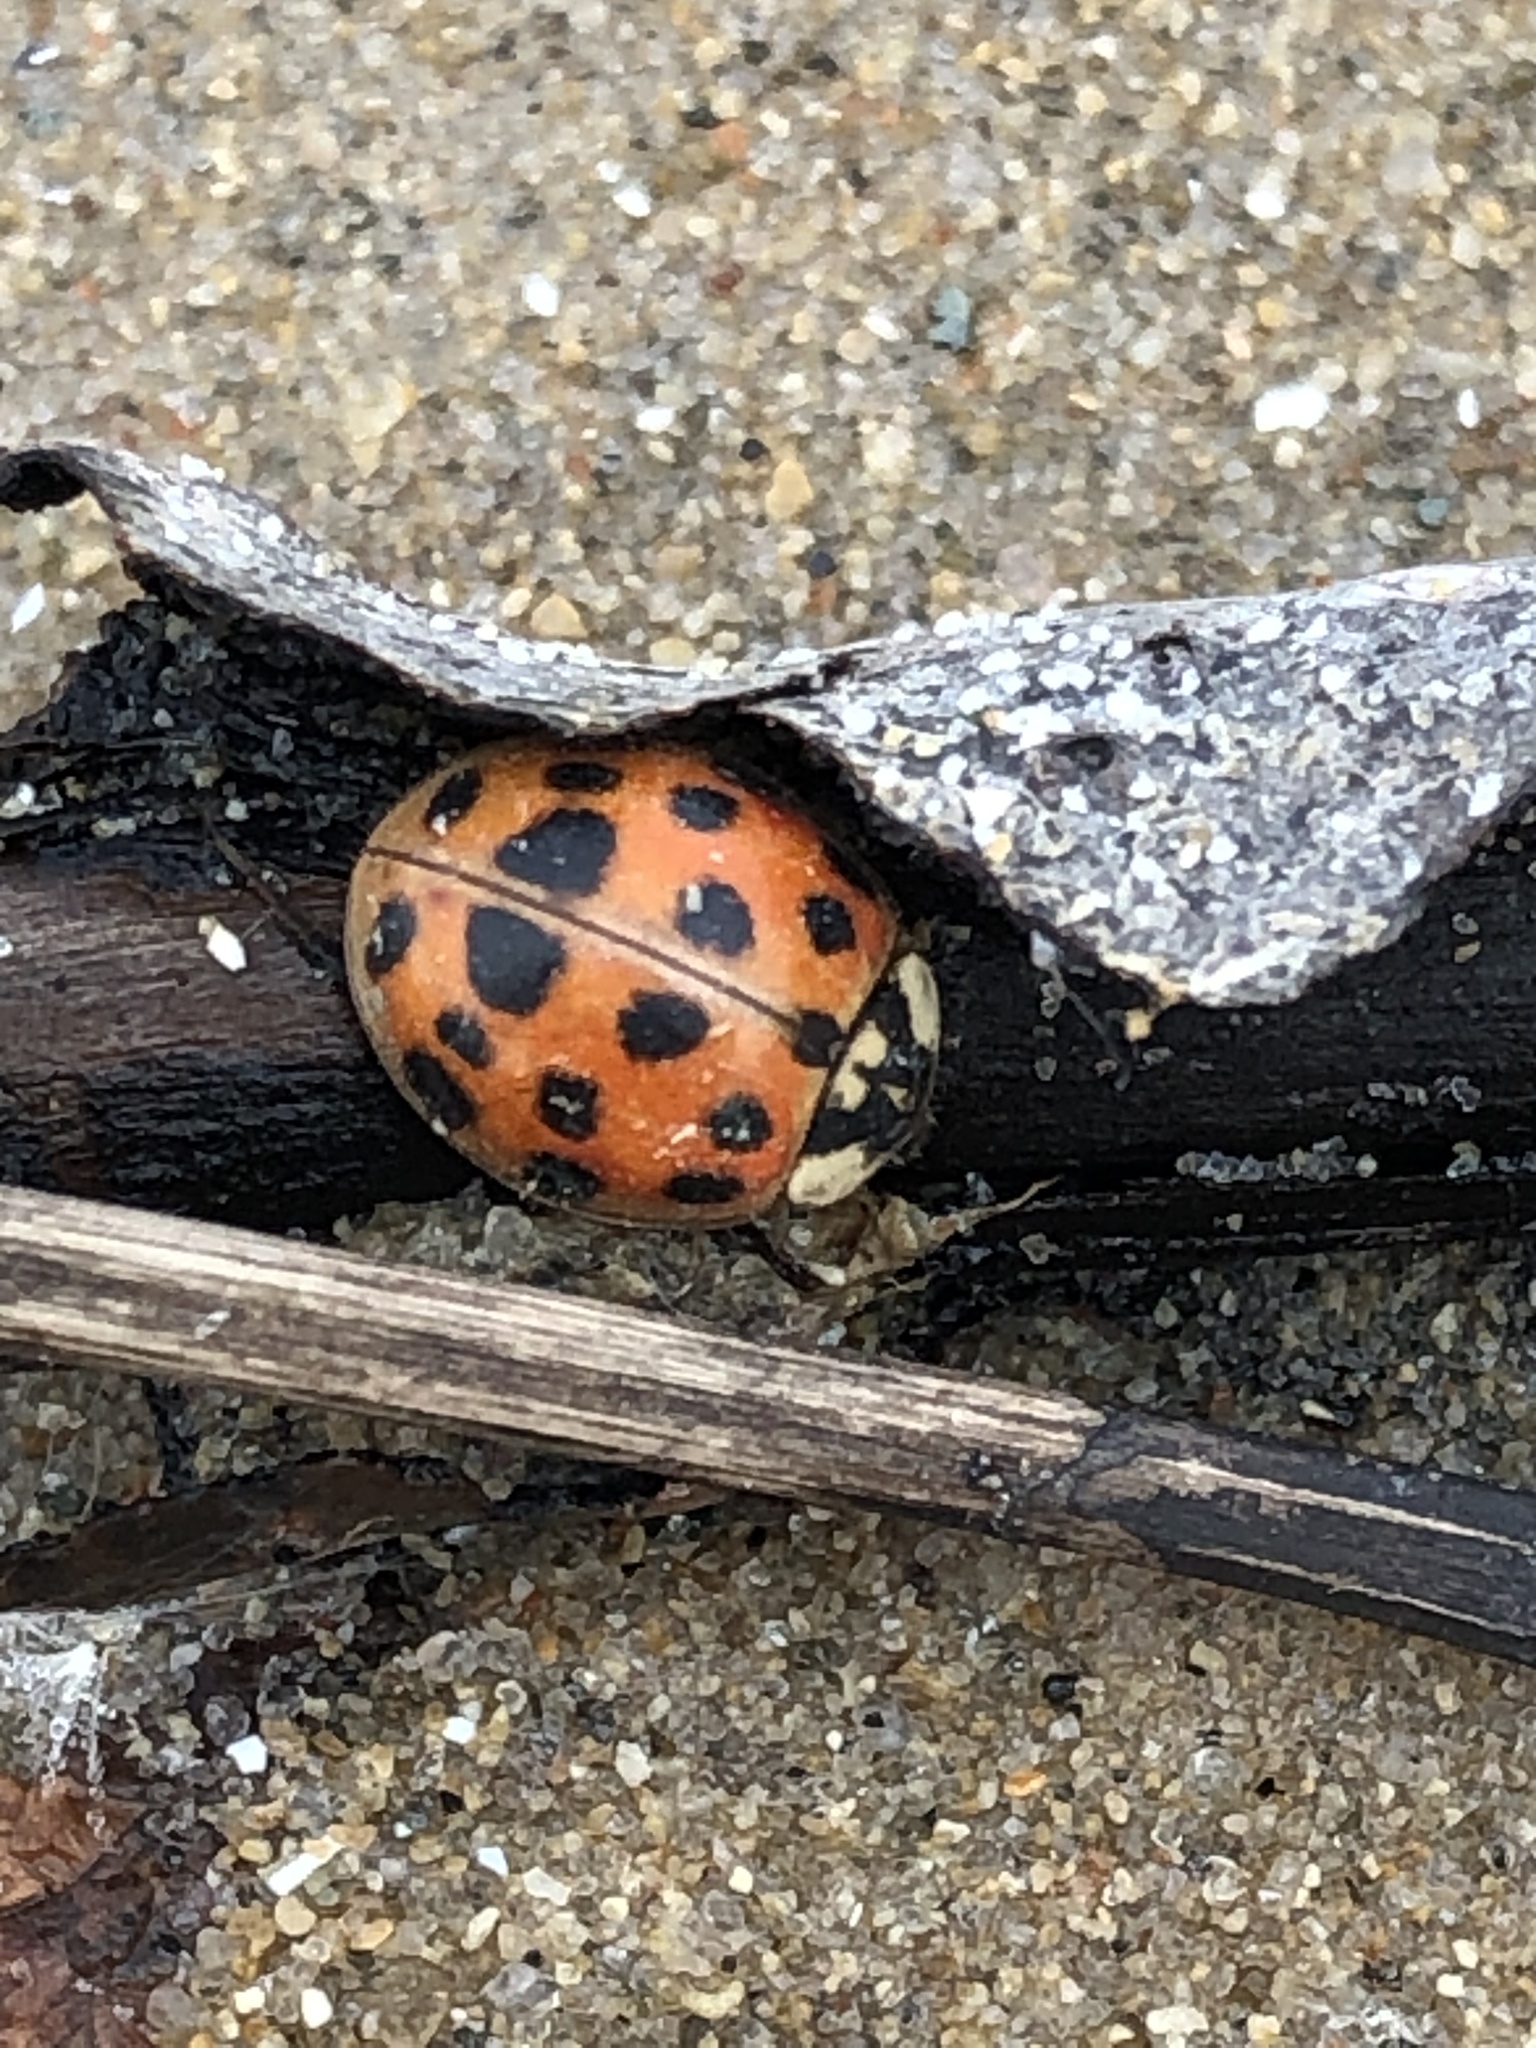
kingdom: Animalia
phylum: Arthropoda
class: Insecta
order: Coleoptera
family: Coccinellidae
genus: Harmonia
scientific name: Harmonia axyridis
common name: Harlequin ladybird
